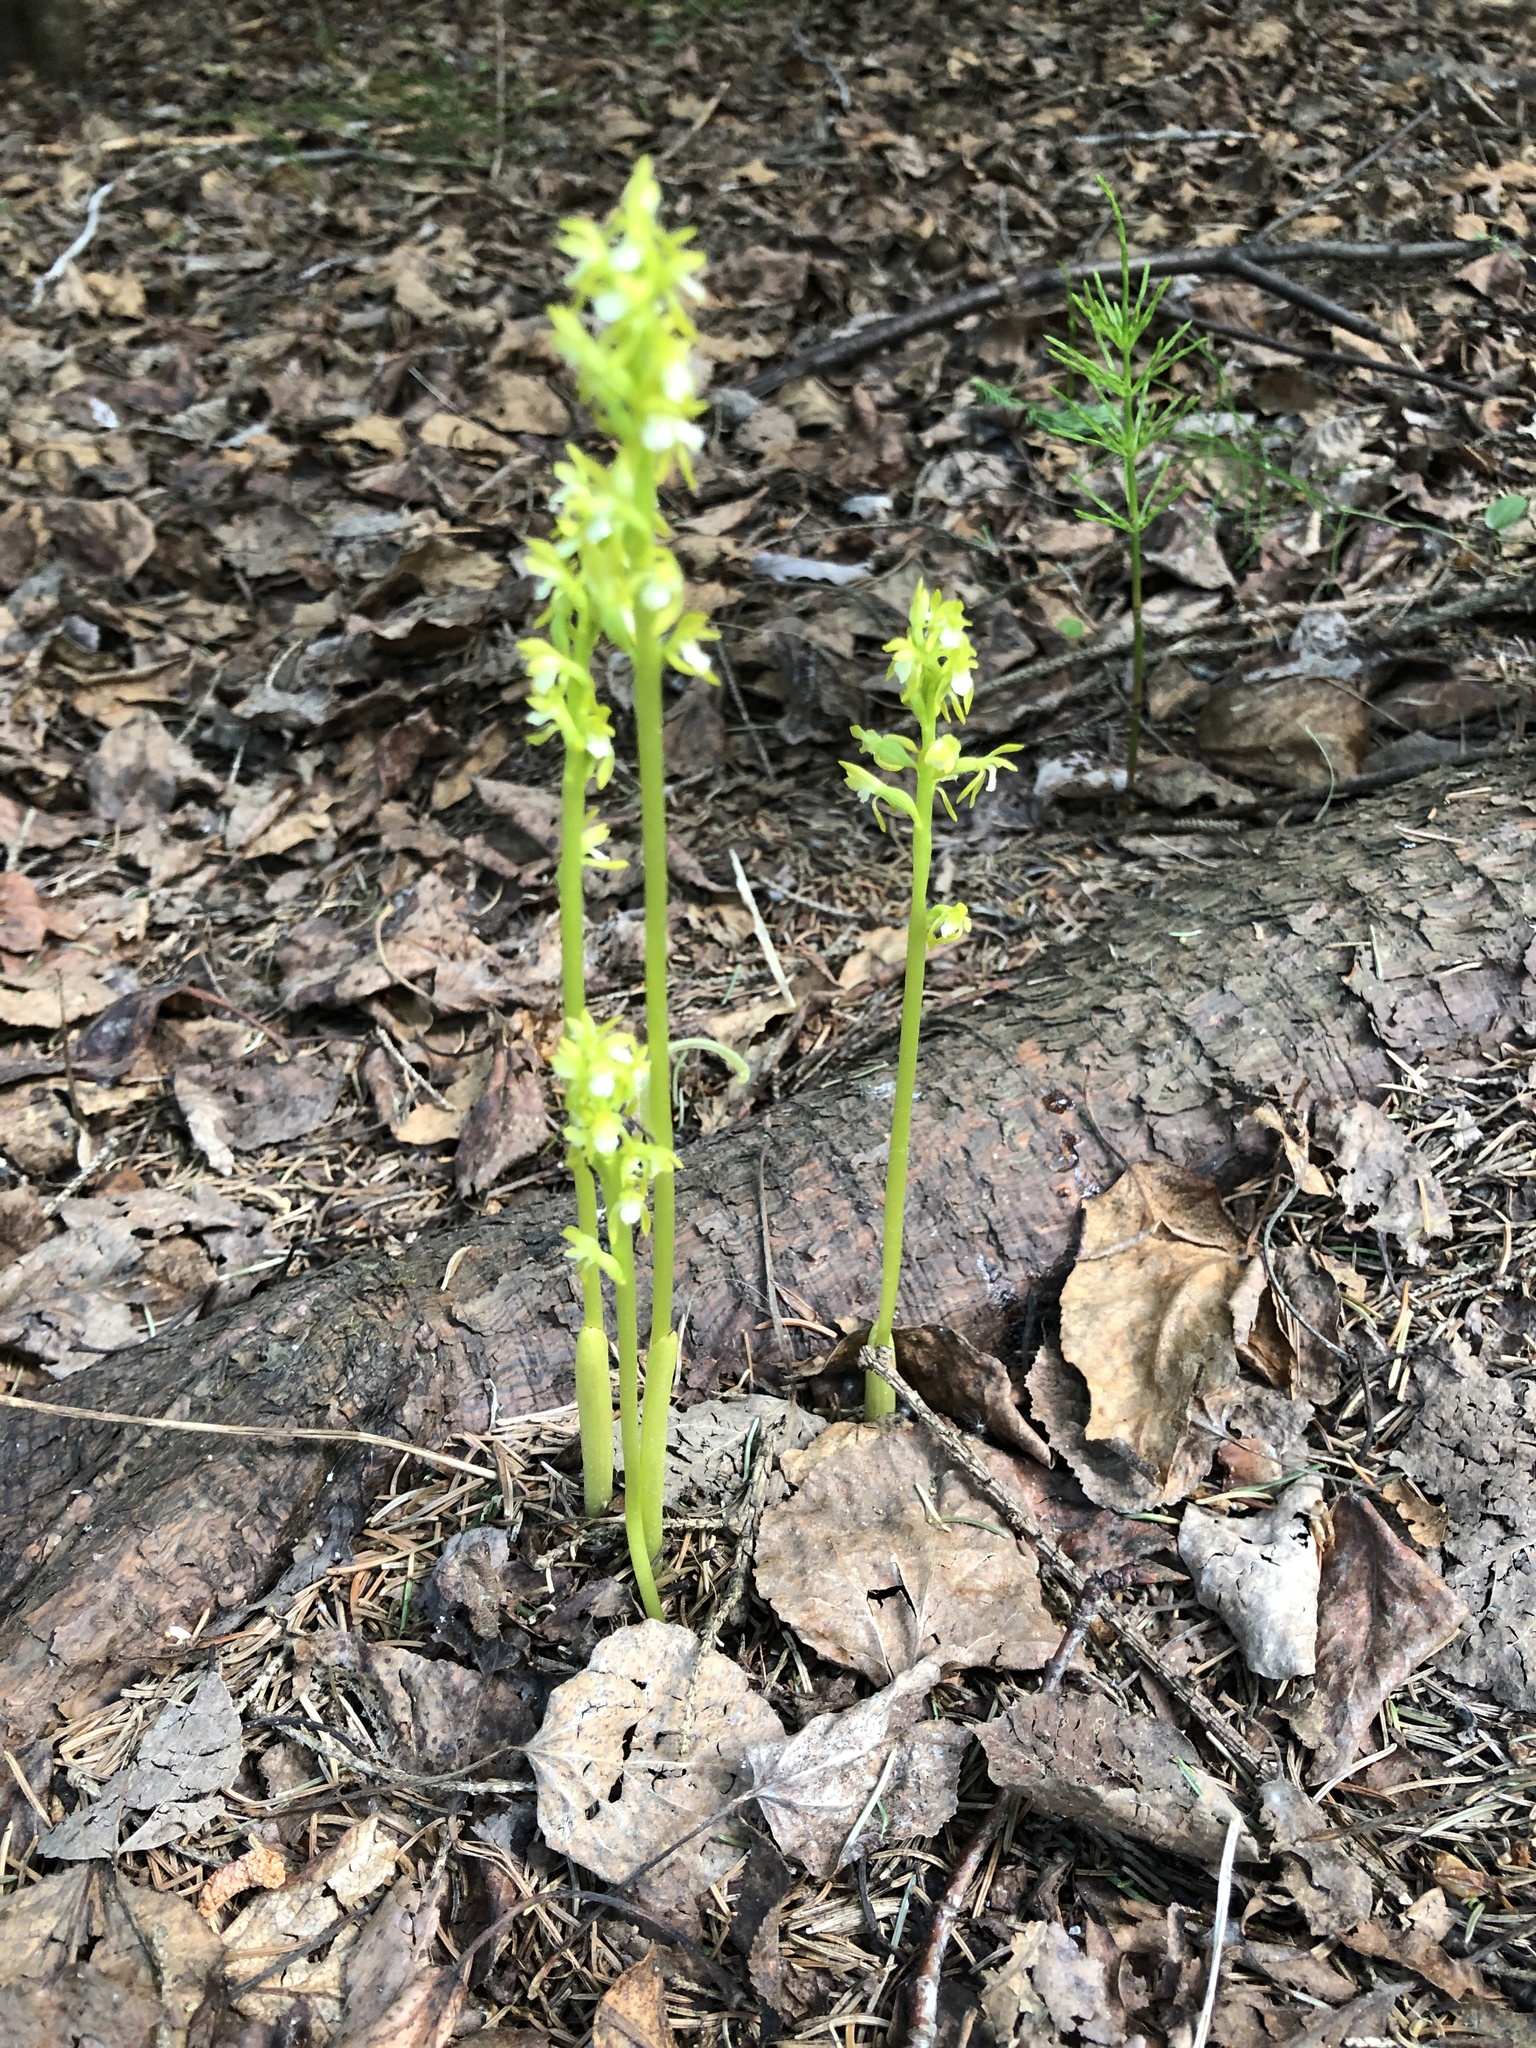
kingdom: Plantae
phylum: Tracheophyta
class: Liliopsida
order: Asparagales
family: Orchidaceae
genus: Corallorhiza
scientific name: Corallorhiza trifida
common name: Yellow coralroot
